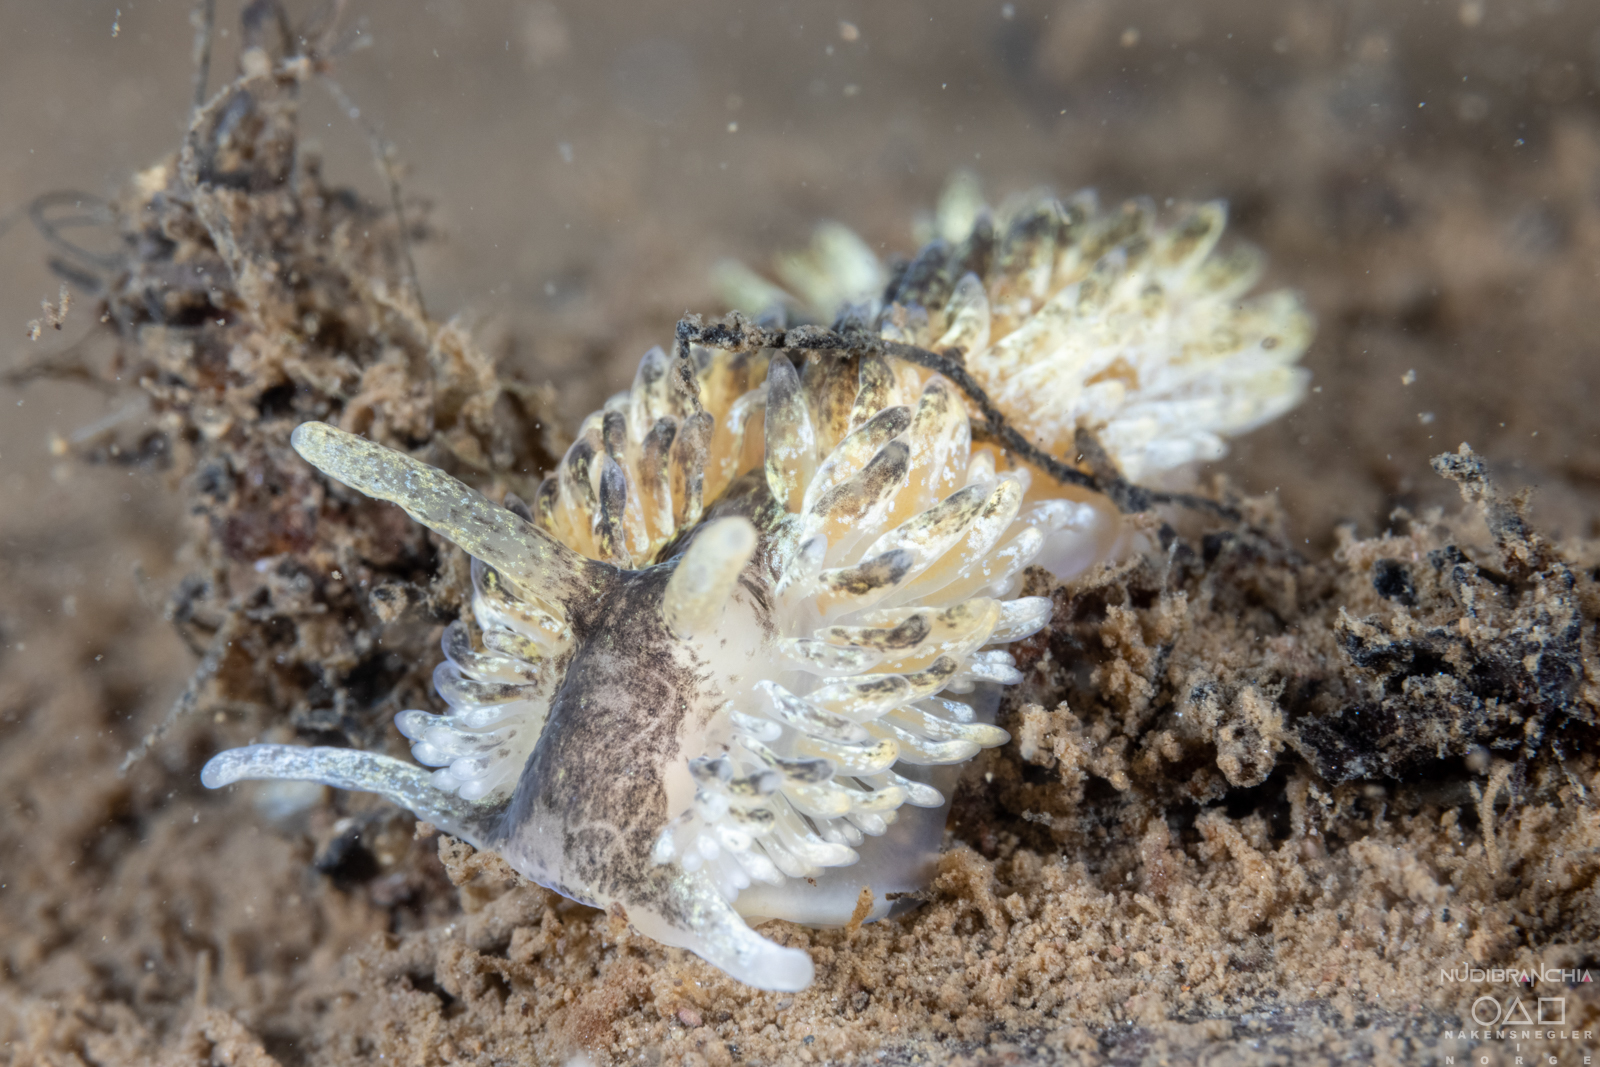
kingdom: Animalia
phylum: Mollusca
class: Gastropoda
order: Nudibranchia
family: Aeolidiidae
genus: Aeolidia
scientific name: Aeolidia papillosa
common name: Common grey sea slug
